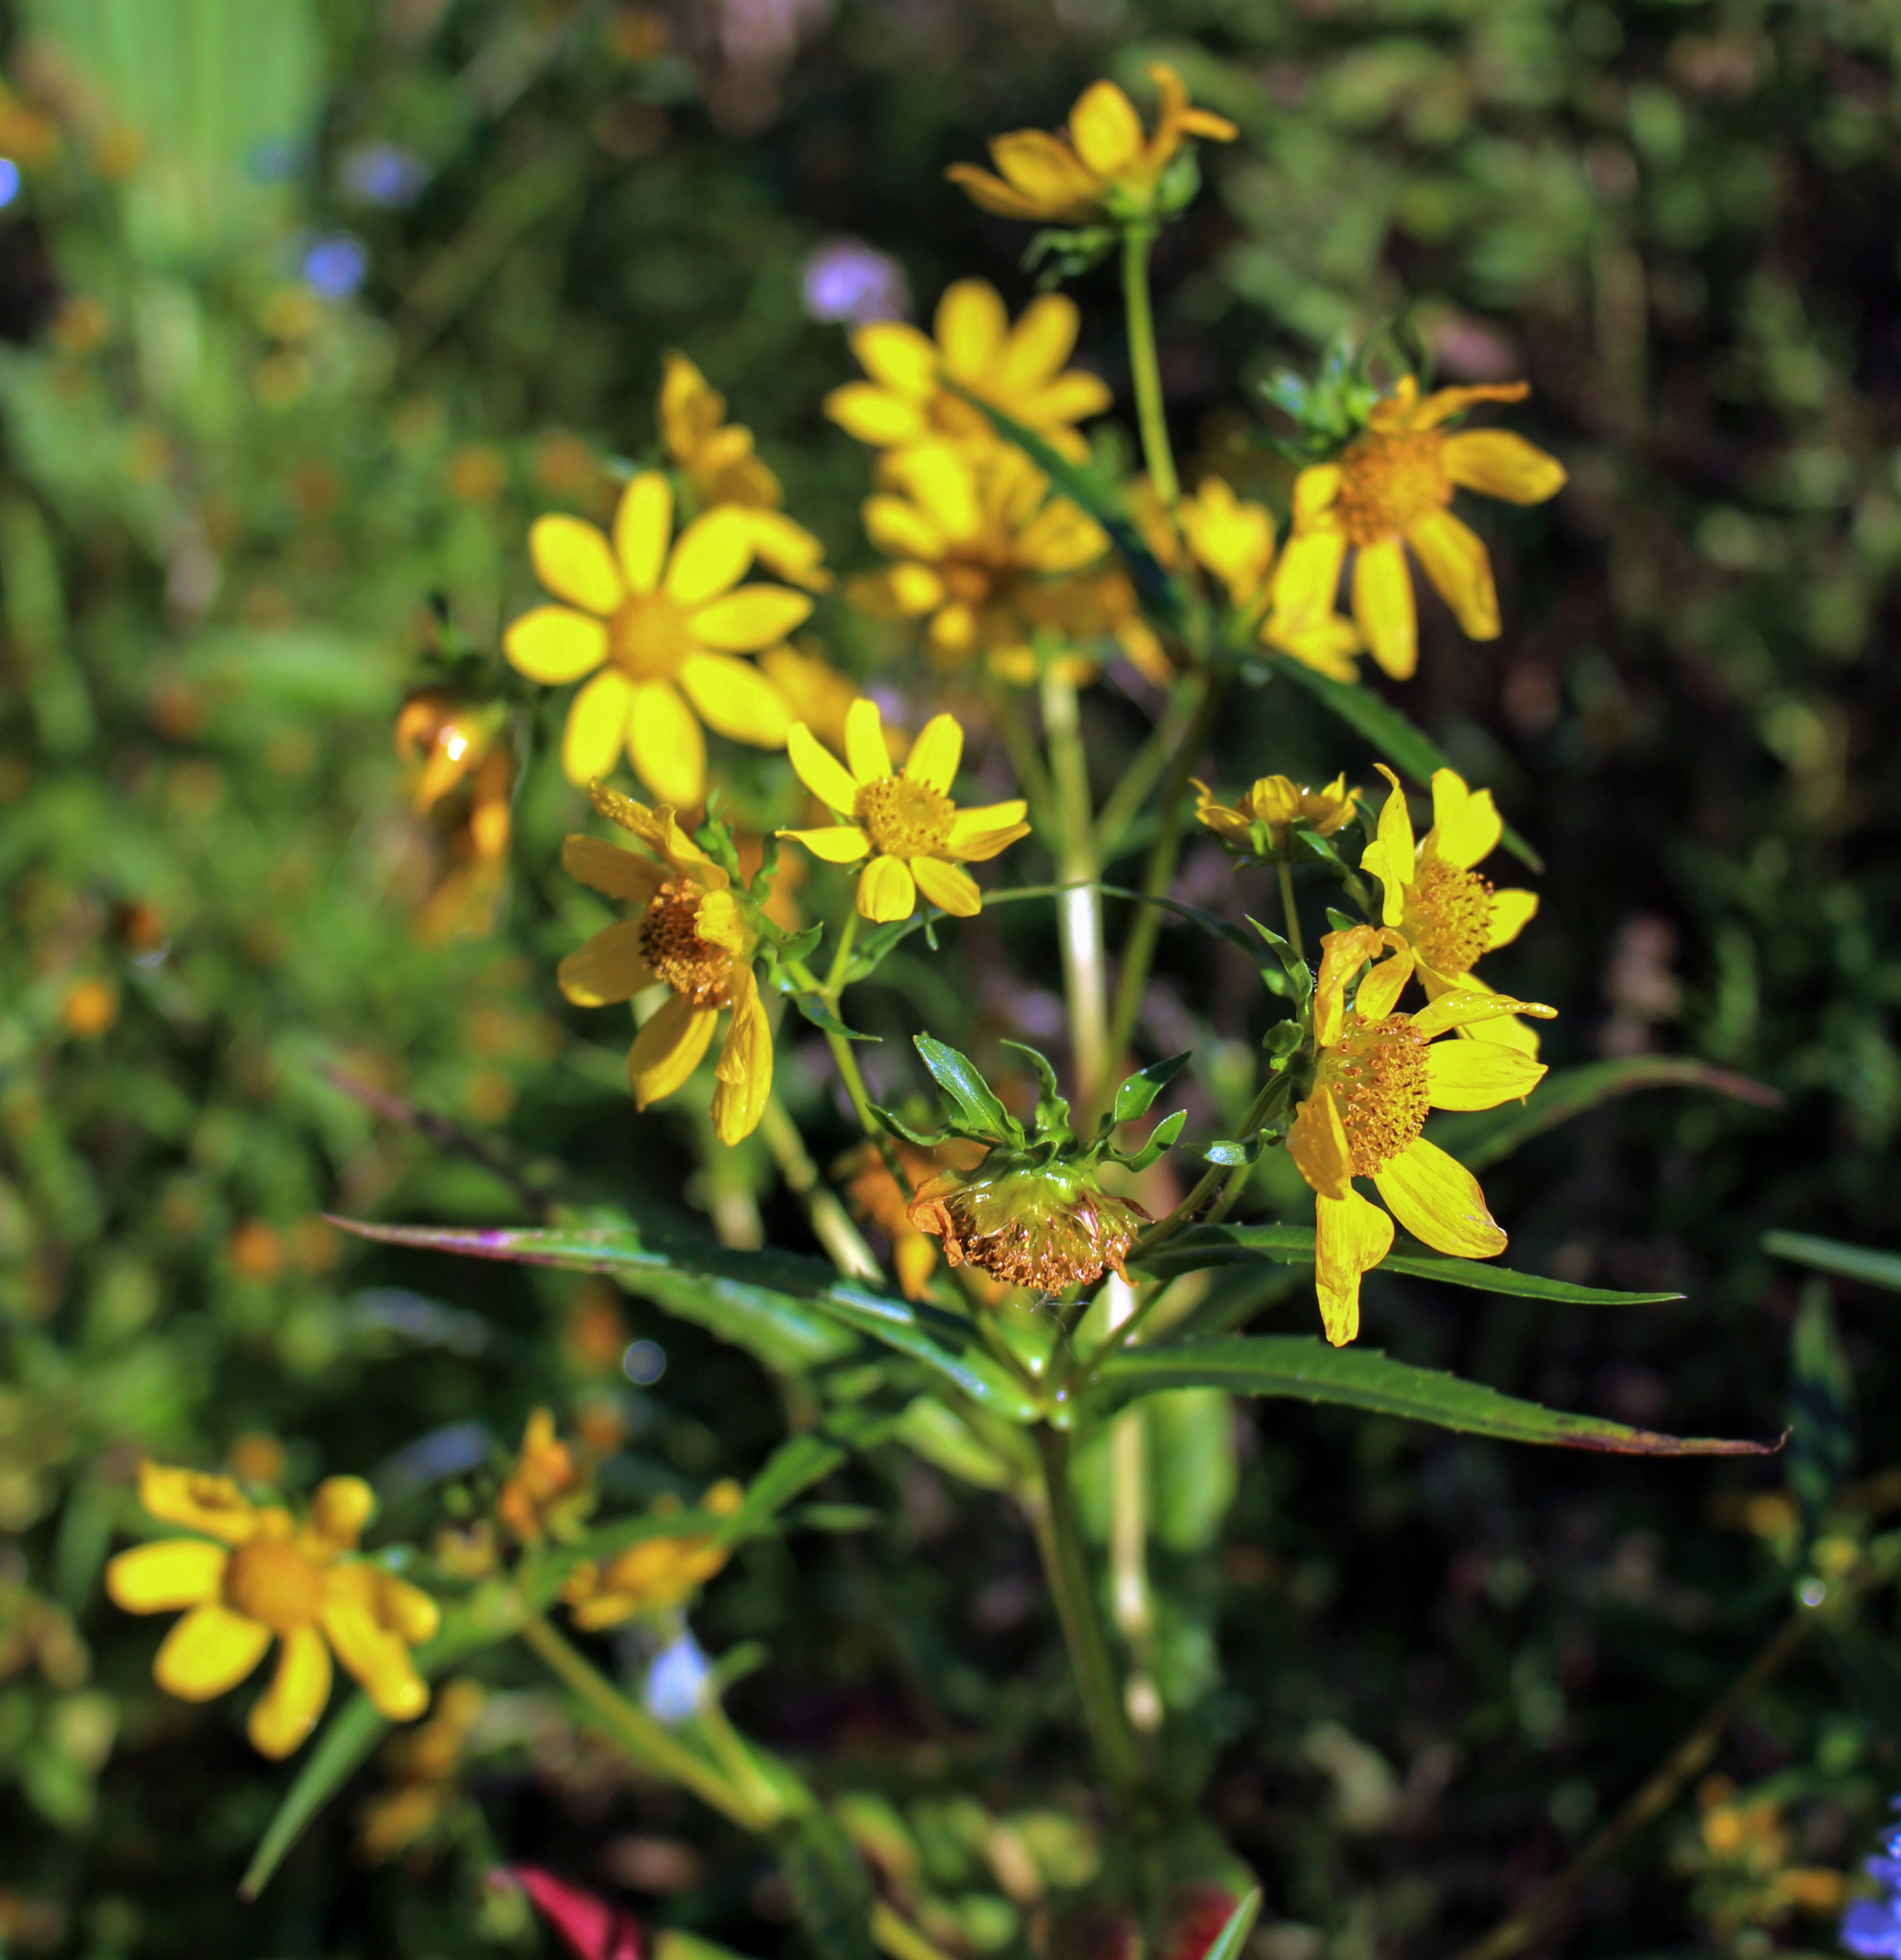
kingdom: Plantae
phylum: Tracheophyta
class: Magnoliopsida
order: Asterales
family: Asteraceae
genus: Bidens
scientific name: Bidens cernua
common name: Nodding bur-marigold
